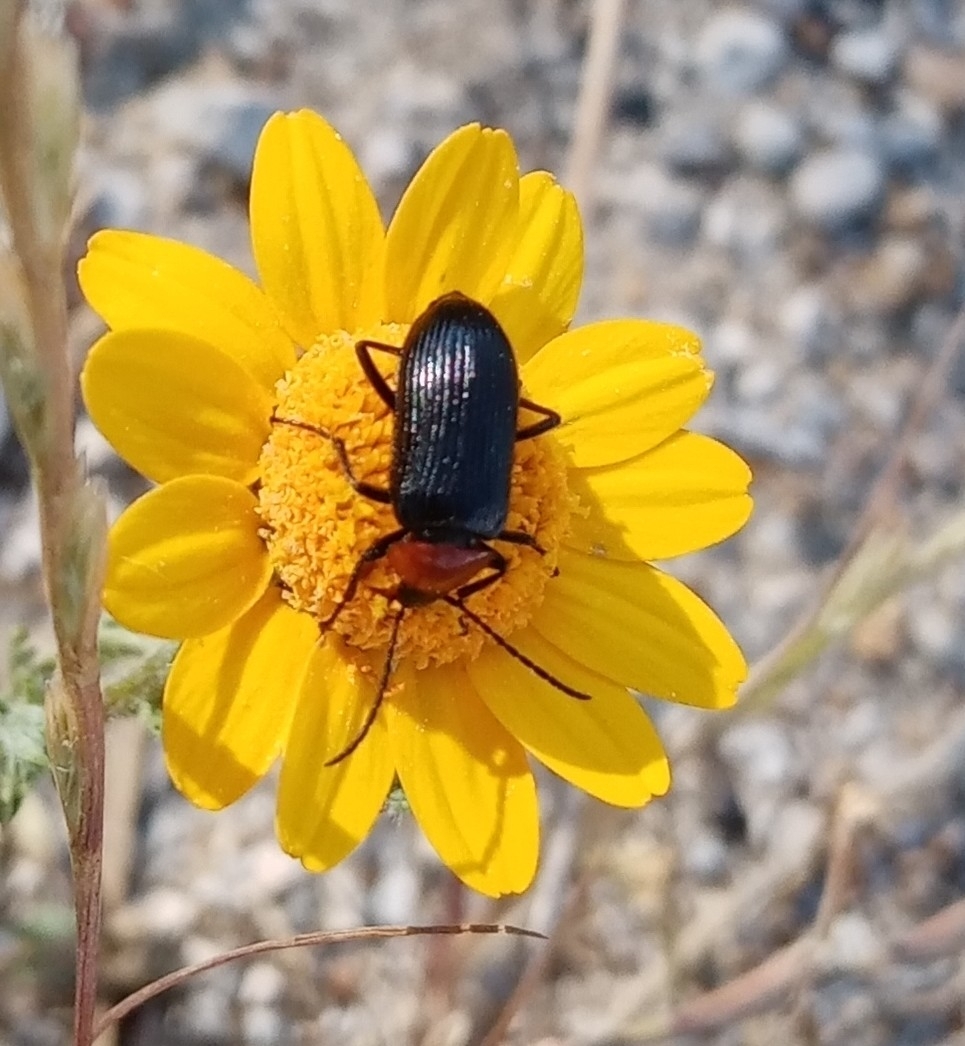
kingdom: Animalia
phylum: Arthropoda
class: Insecta
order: Coleoptera
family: Tenebrionidae
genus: Heliotaurus
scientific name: Heliotaurus ruficollis
